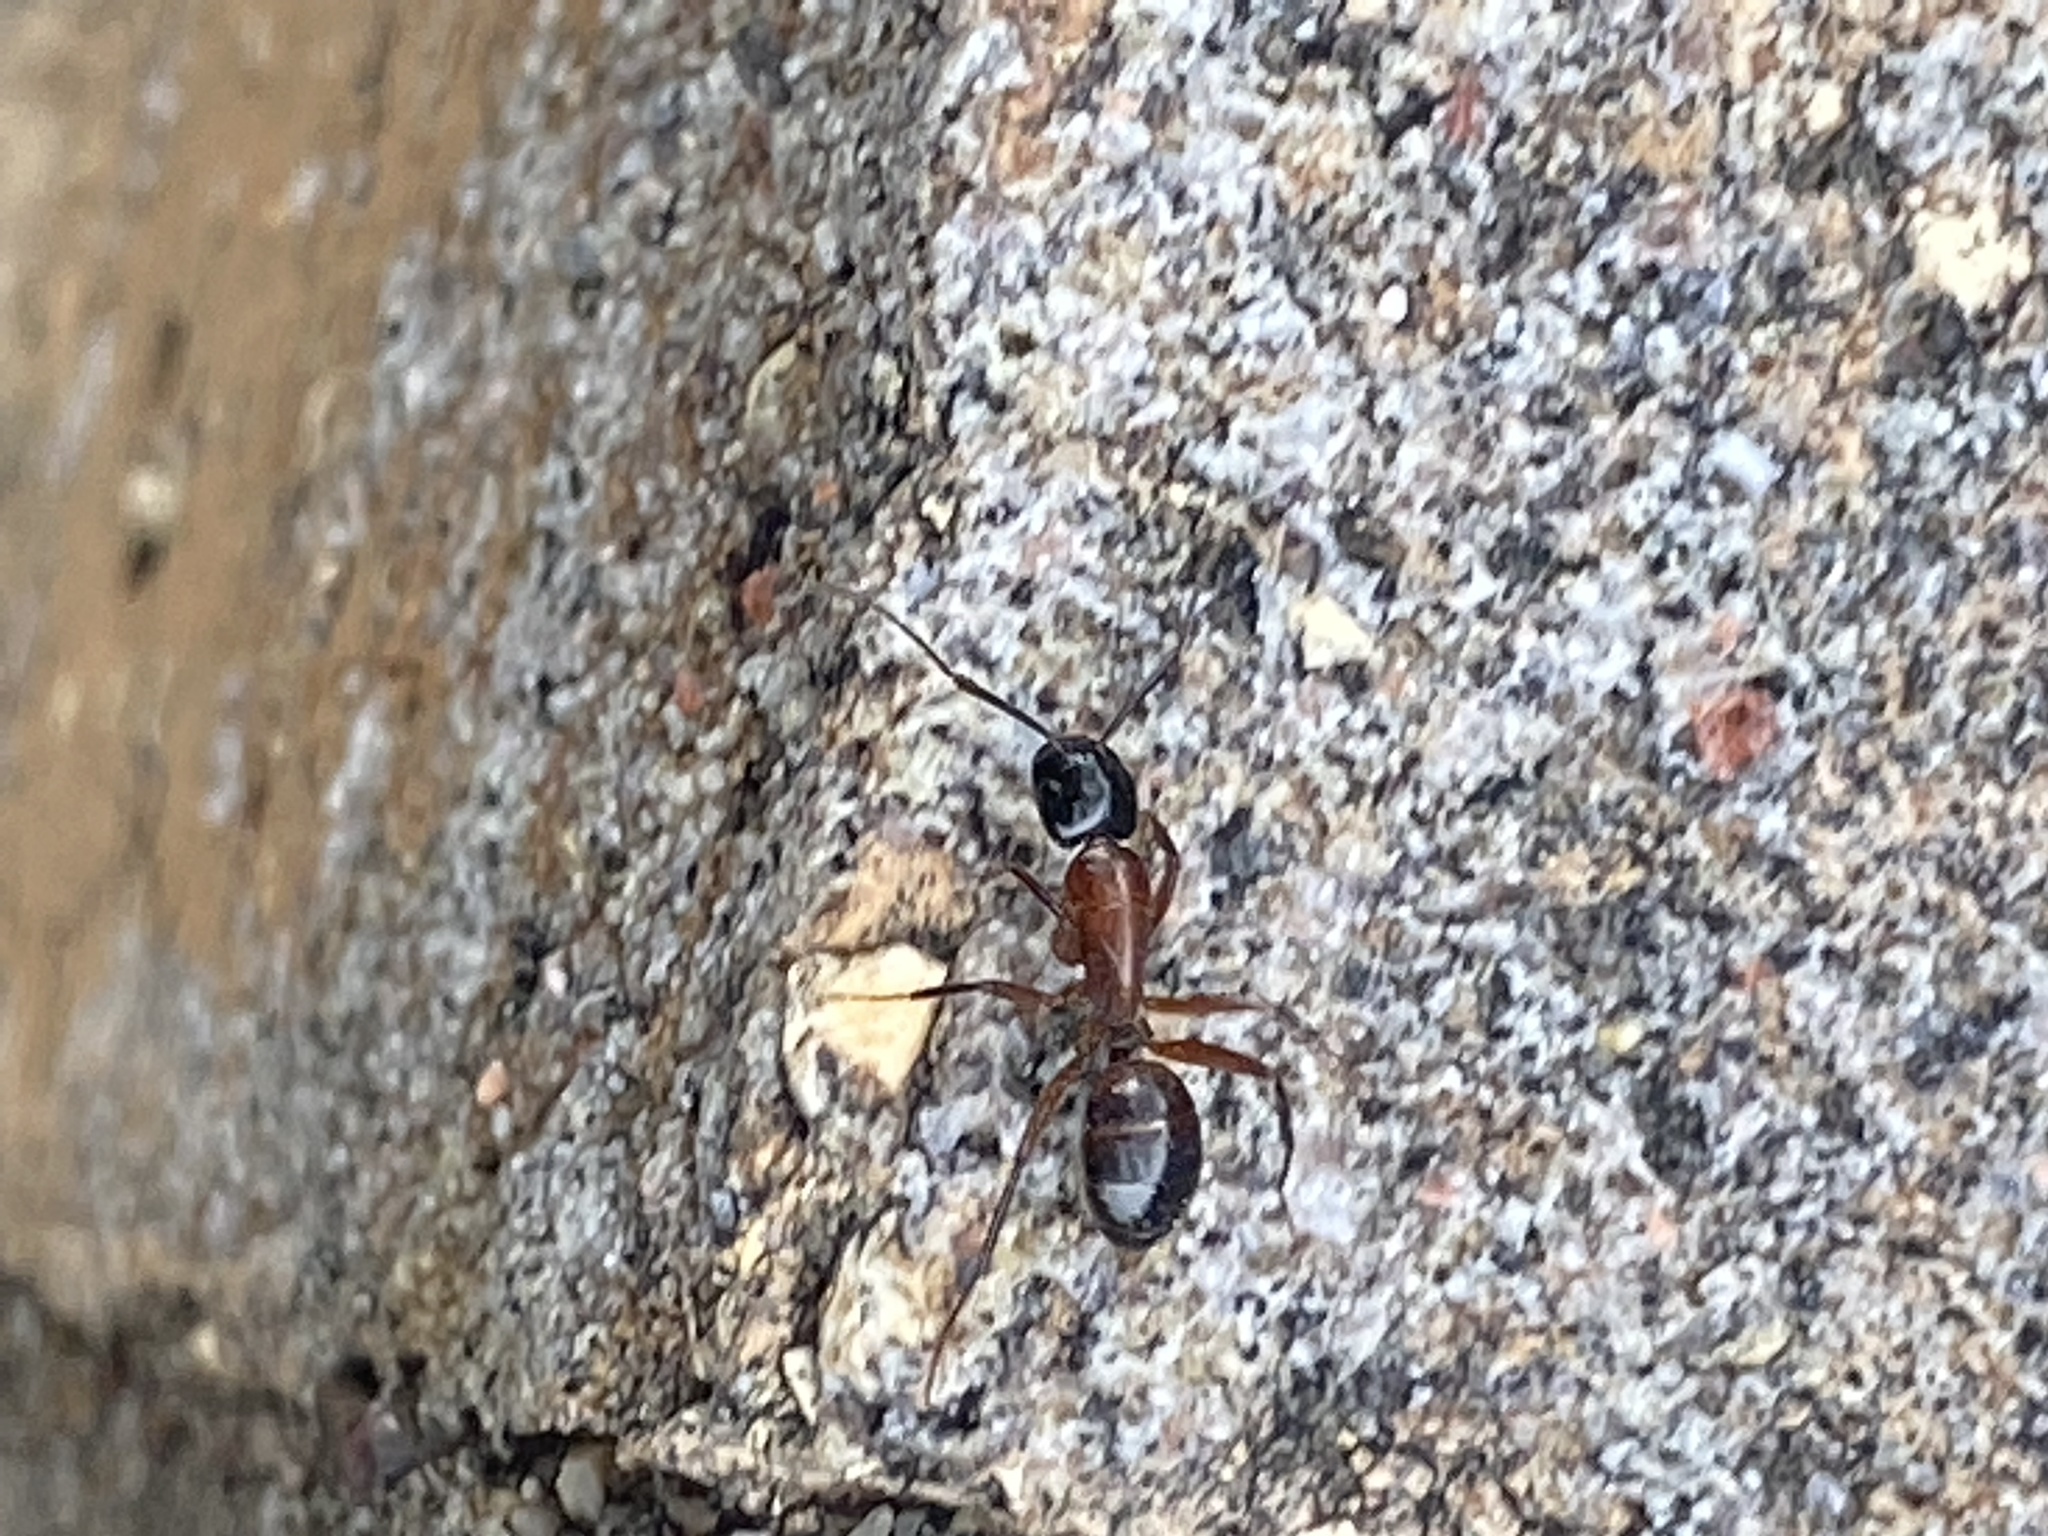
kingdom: Animalia
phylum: Arthropoda
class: Insecta
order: Hymenoptera
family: Formicidae
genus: Camponotus
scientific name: Camponotus texanus
